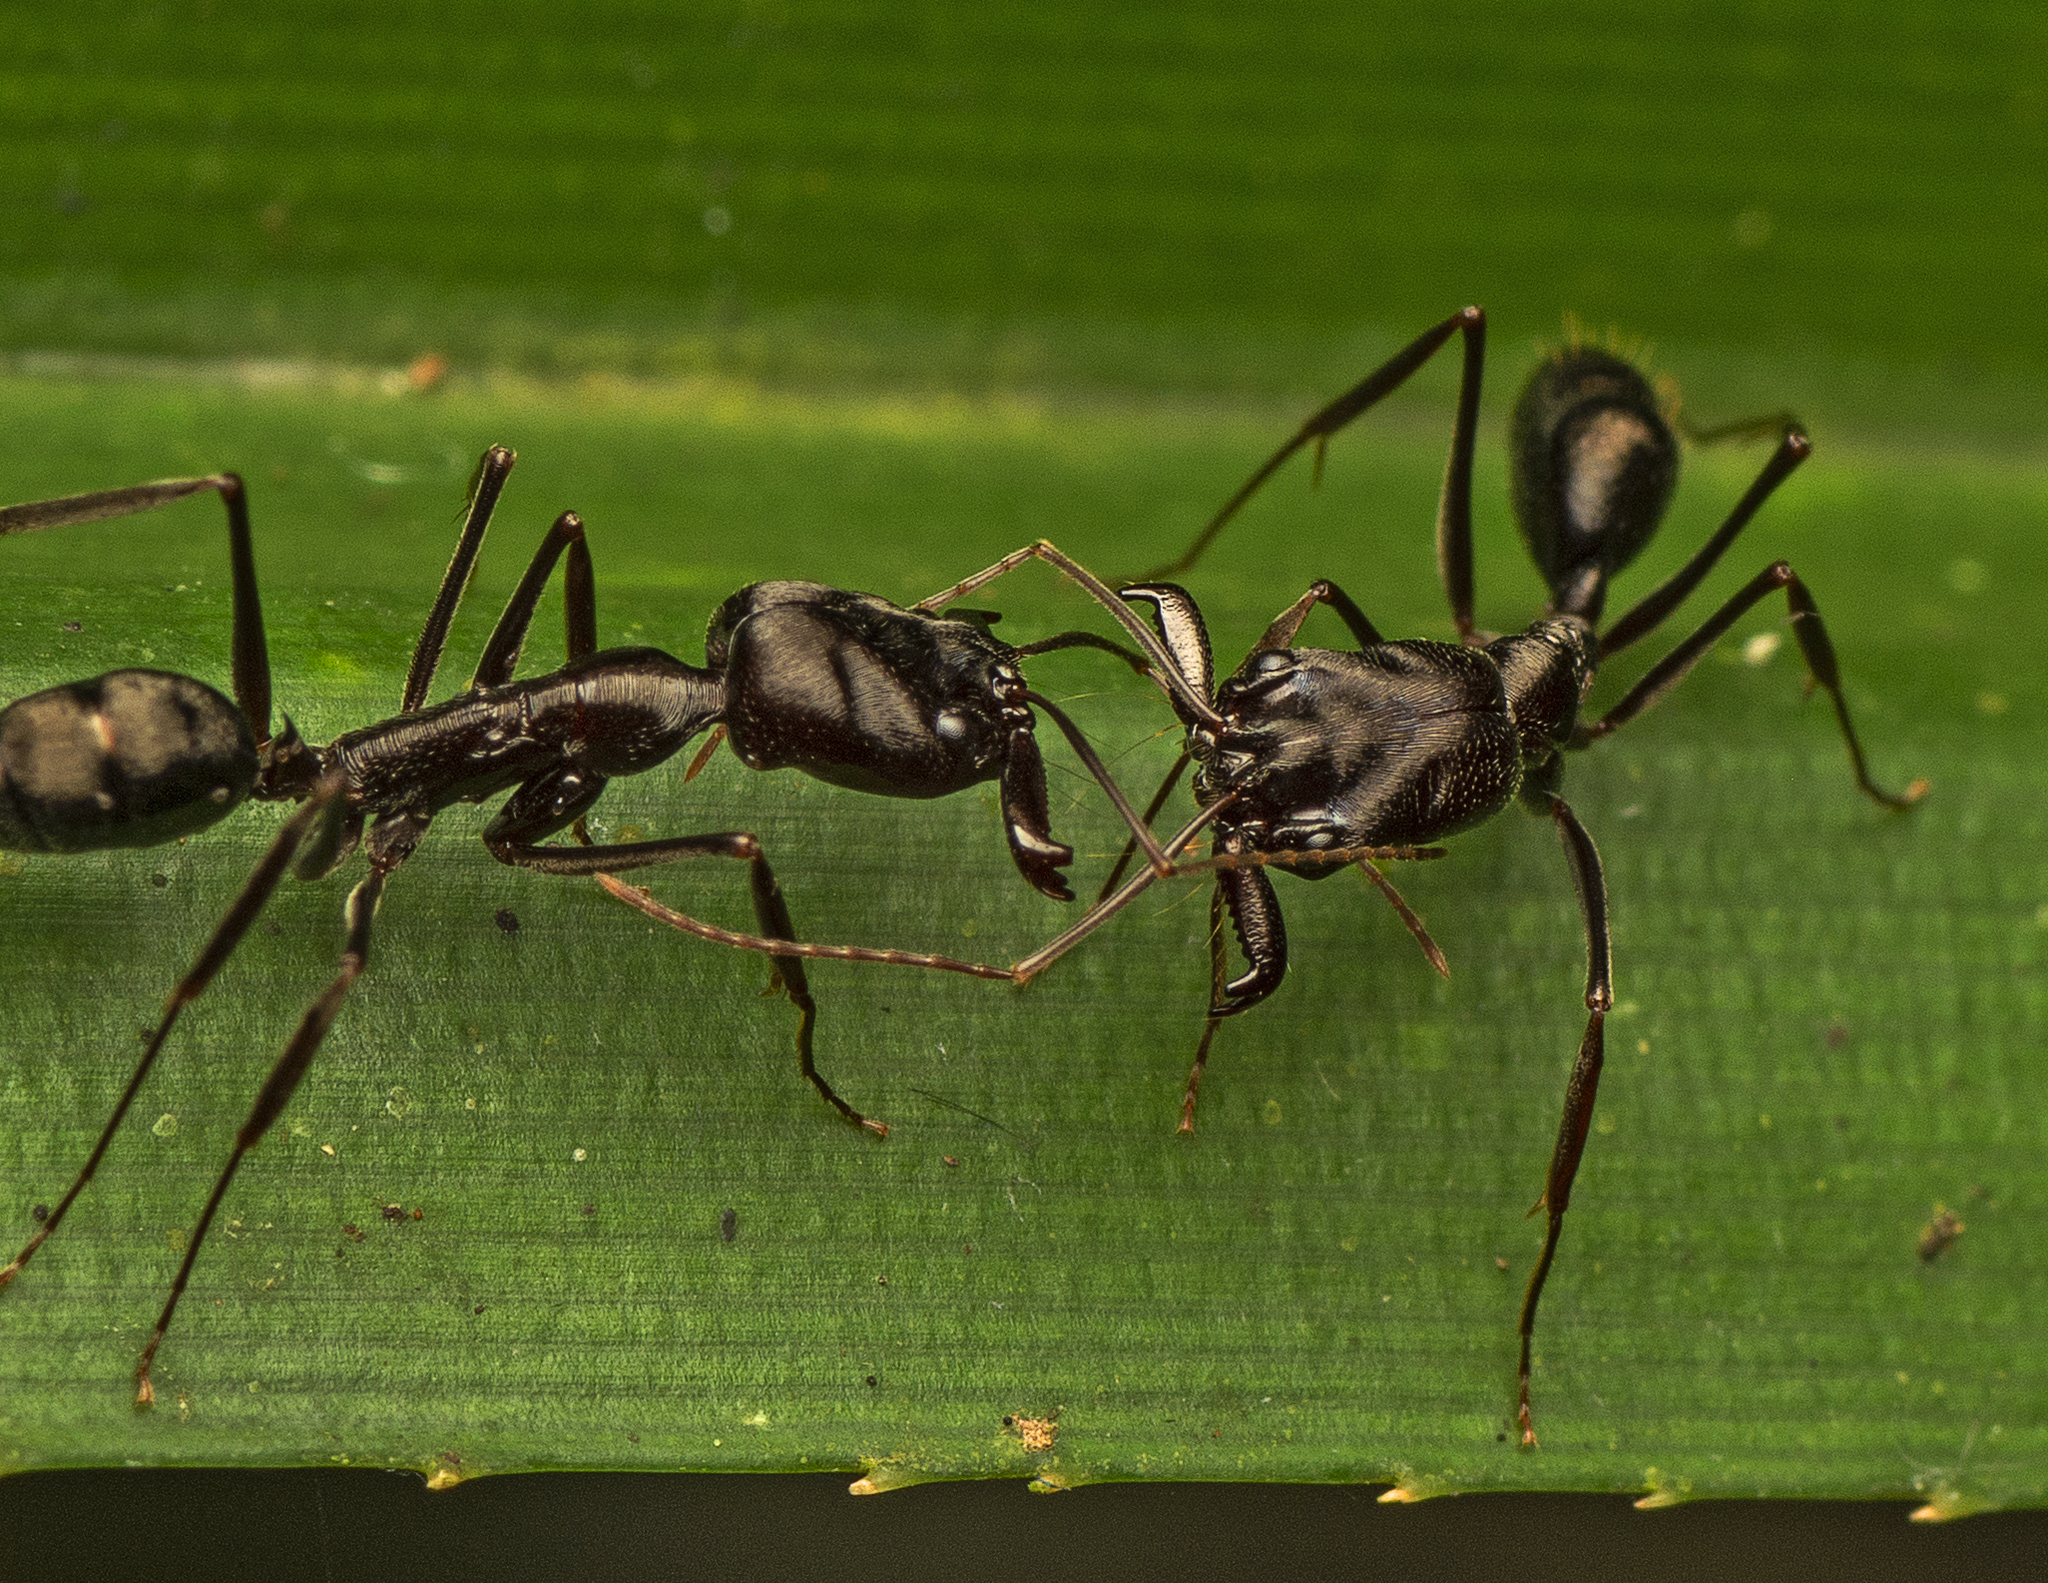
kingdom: Animalia
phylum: Arthropoda
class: Insecta
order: Hymenoptera
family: Formicidae
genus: Odontomachus
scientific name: Odontomachus cephalotes
